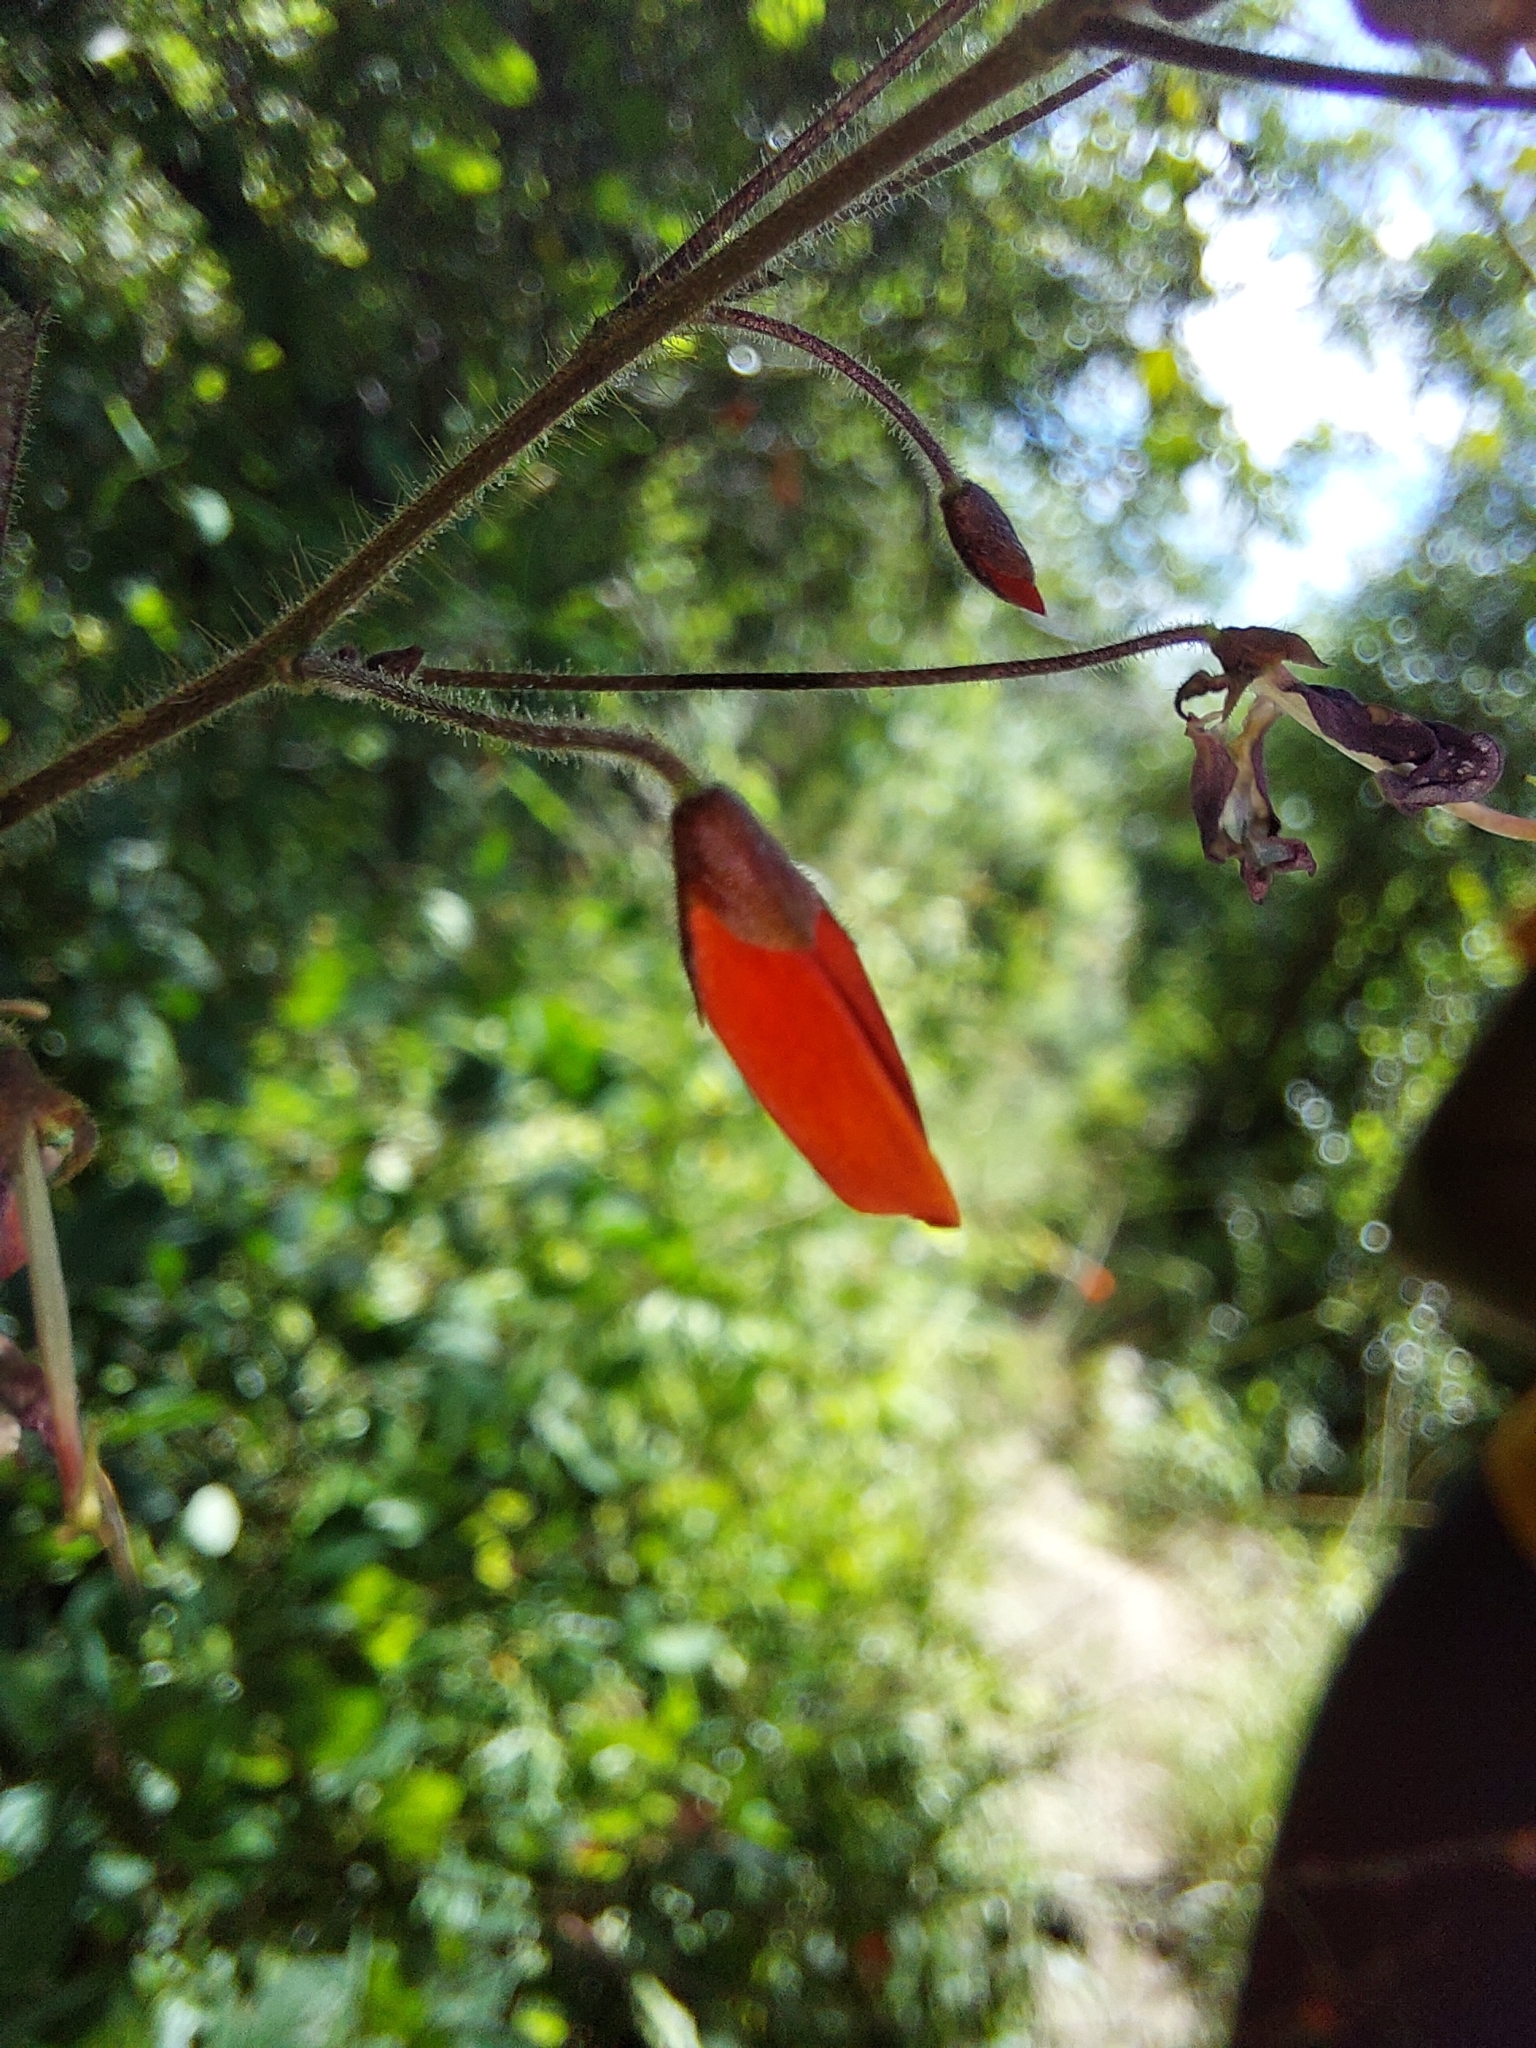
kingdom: Plantae
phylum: Tracheophyta
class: Magnoliopsida
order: Fabales
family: Fabaceae
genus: Hylodesmum
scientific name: Hylodesmum repandum
